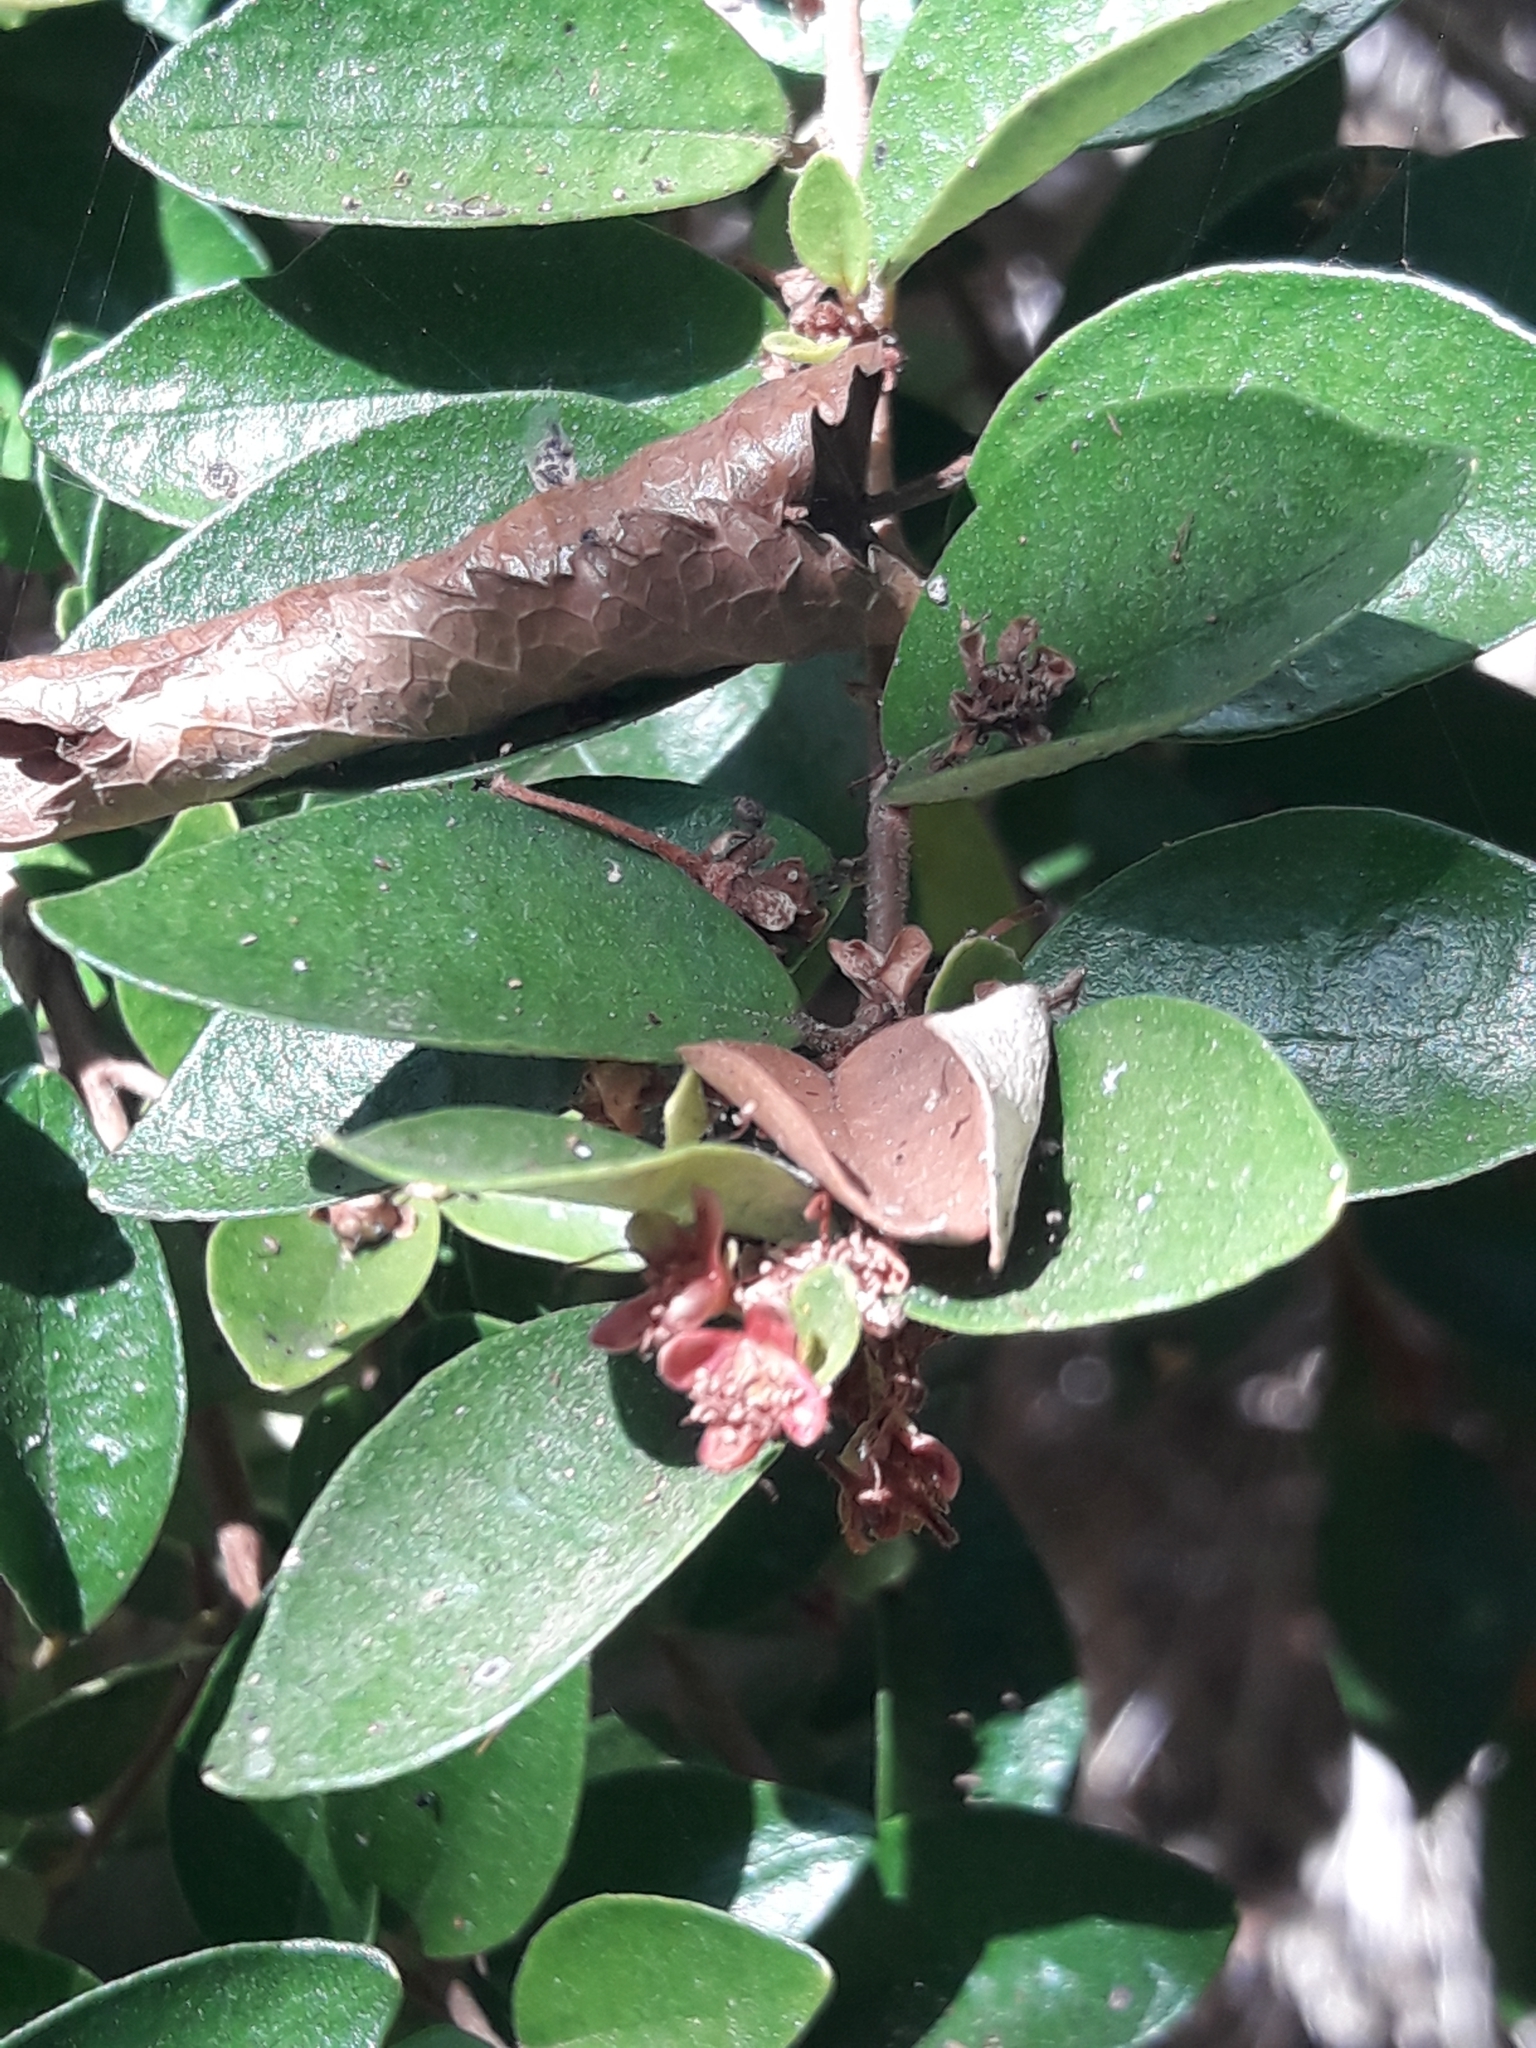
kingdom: Plantae
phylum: Tracheophyta
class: Magnoliopsida
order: Myrtales
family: Myrtaceae
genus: Myrceugenia
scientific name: Myrceugenia obtusa
